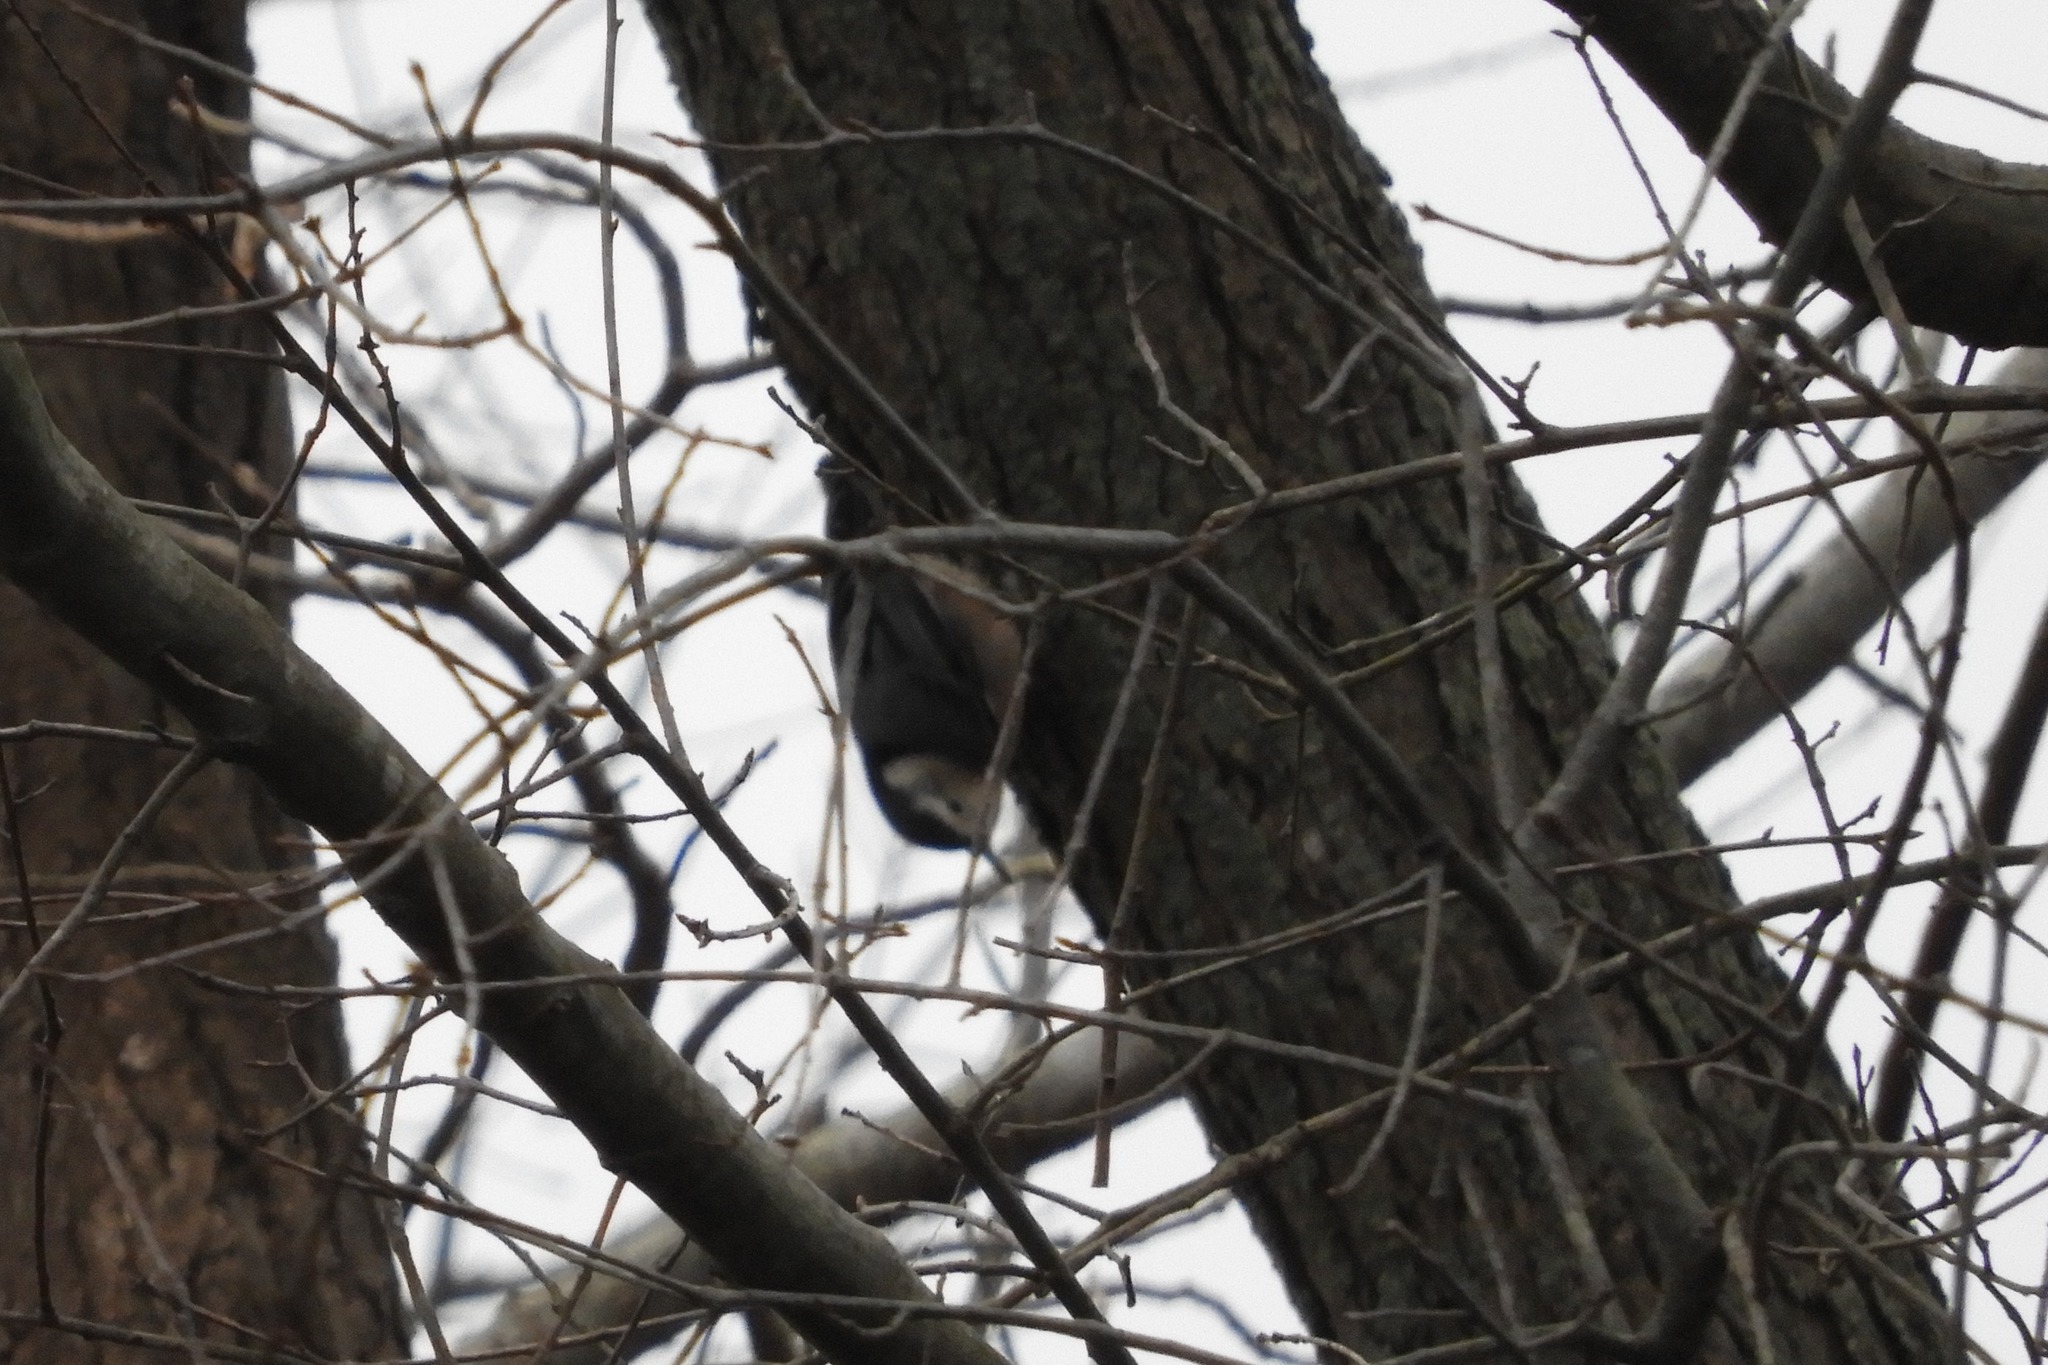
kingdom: Animalia
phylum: Chordata
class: Aves
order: Passeriformes
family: Sittidae
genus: Sitta
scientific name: Sitta carolinensis
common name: White-breasted nuthatch
